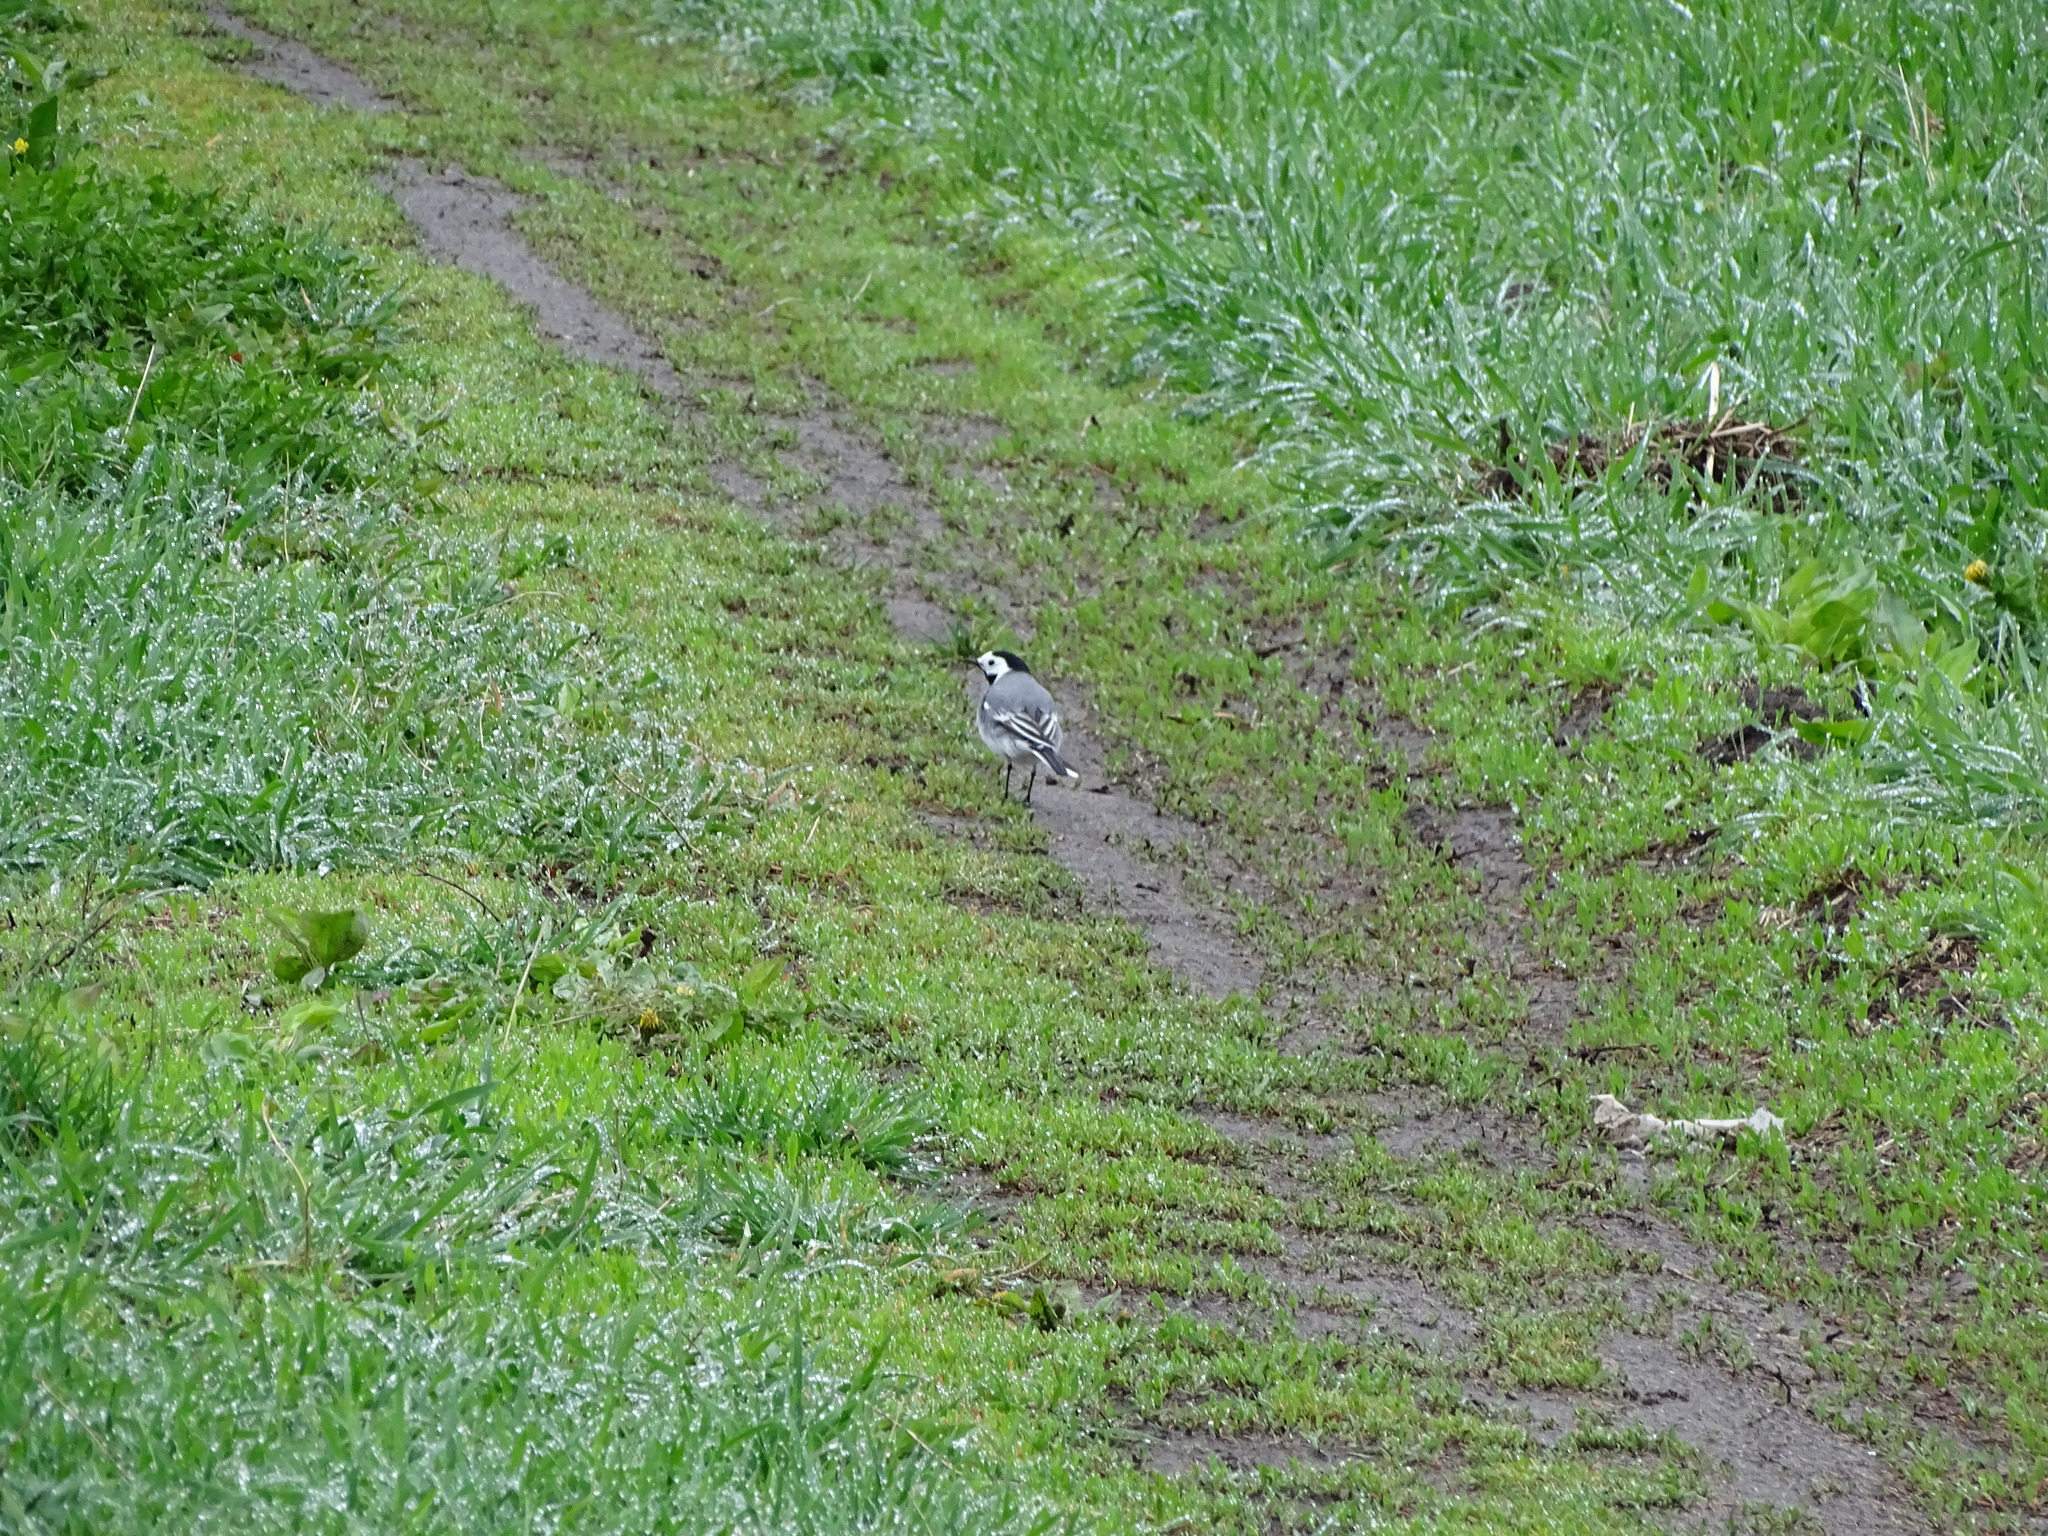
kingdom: Animalia
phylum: Chordata
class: Aves
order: Passeriformes
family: Motacillidae
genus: Motacilla
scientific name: Motacilla alba
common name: White wagtail
